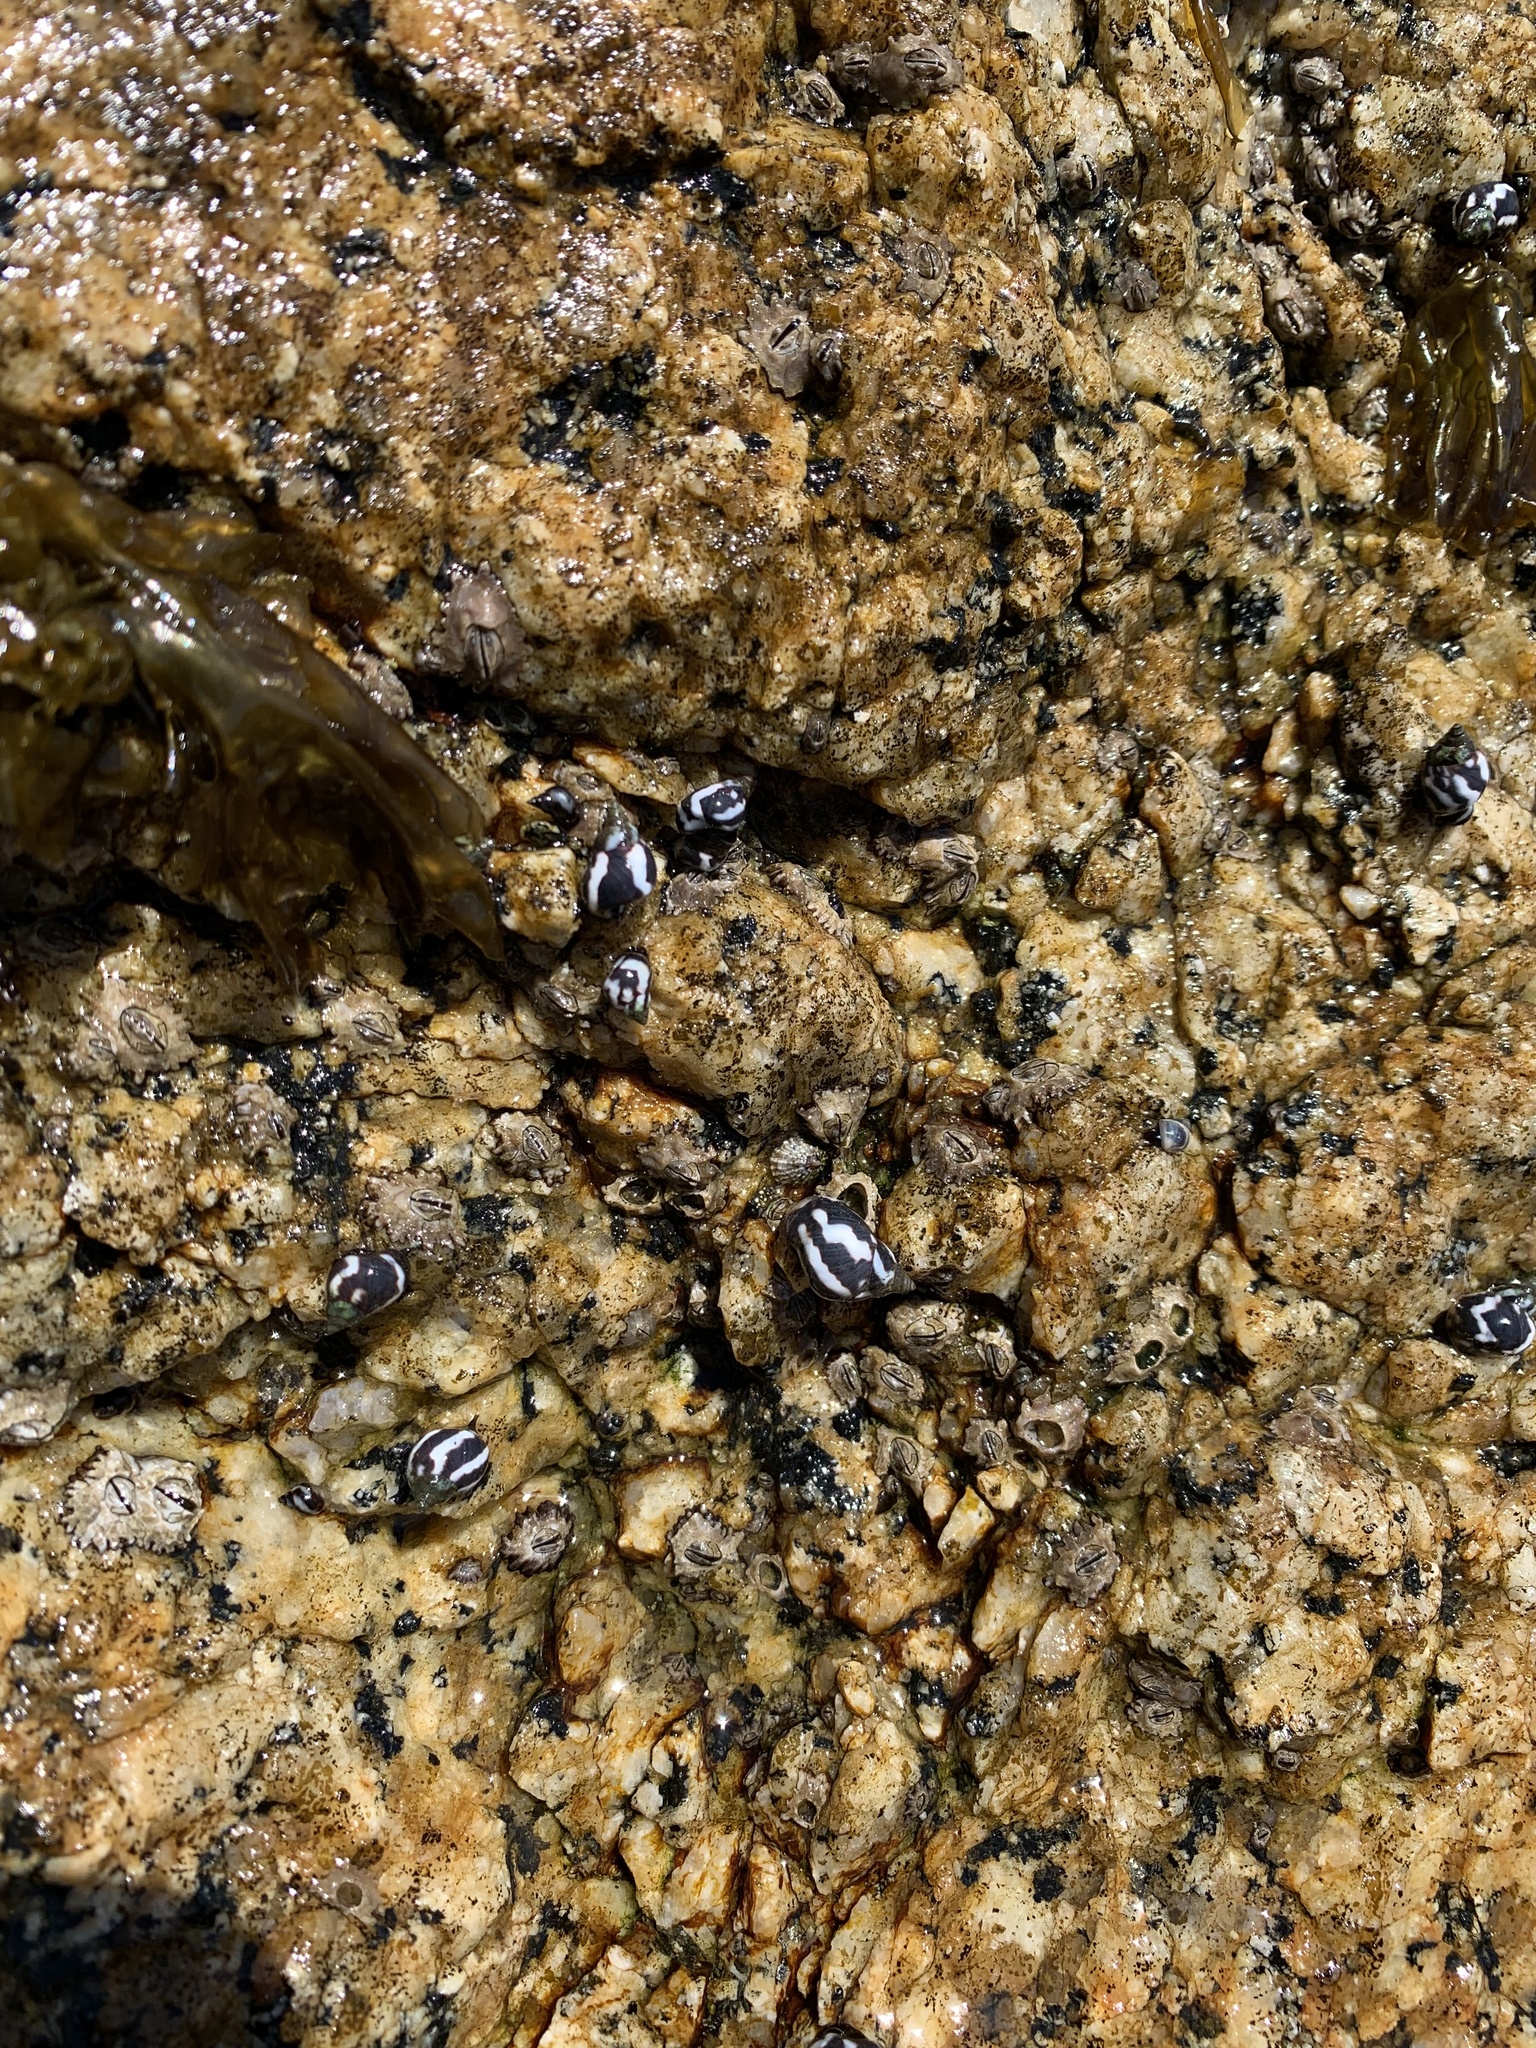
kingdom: Animalia
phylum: Mollusca
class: Gastropoda
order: Littorinimorpha
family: Littorinidae
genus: Echinolittorina
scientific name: Echinolittorina peruviana
